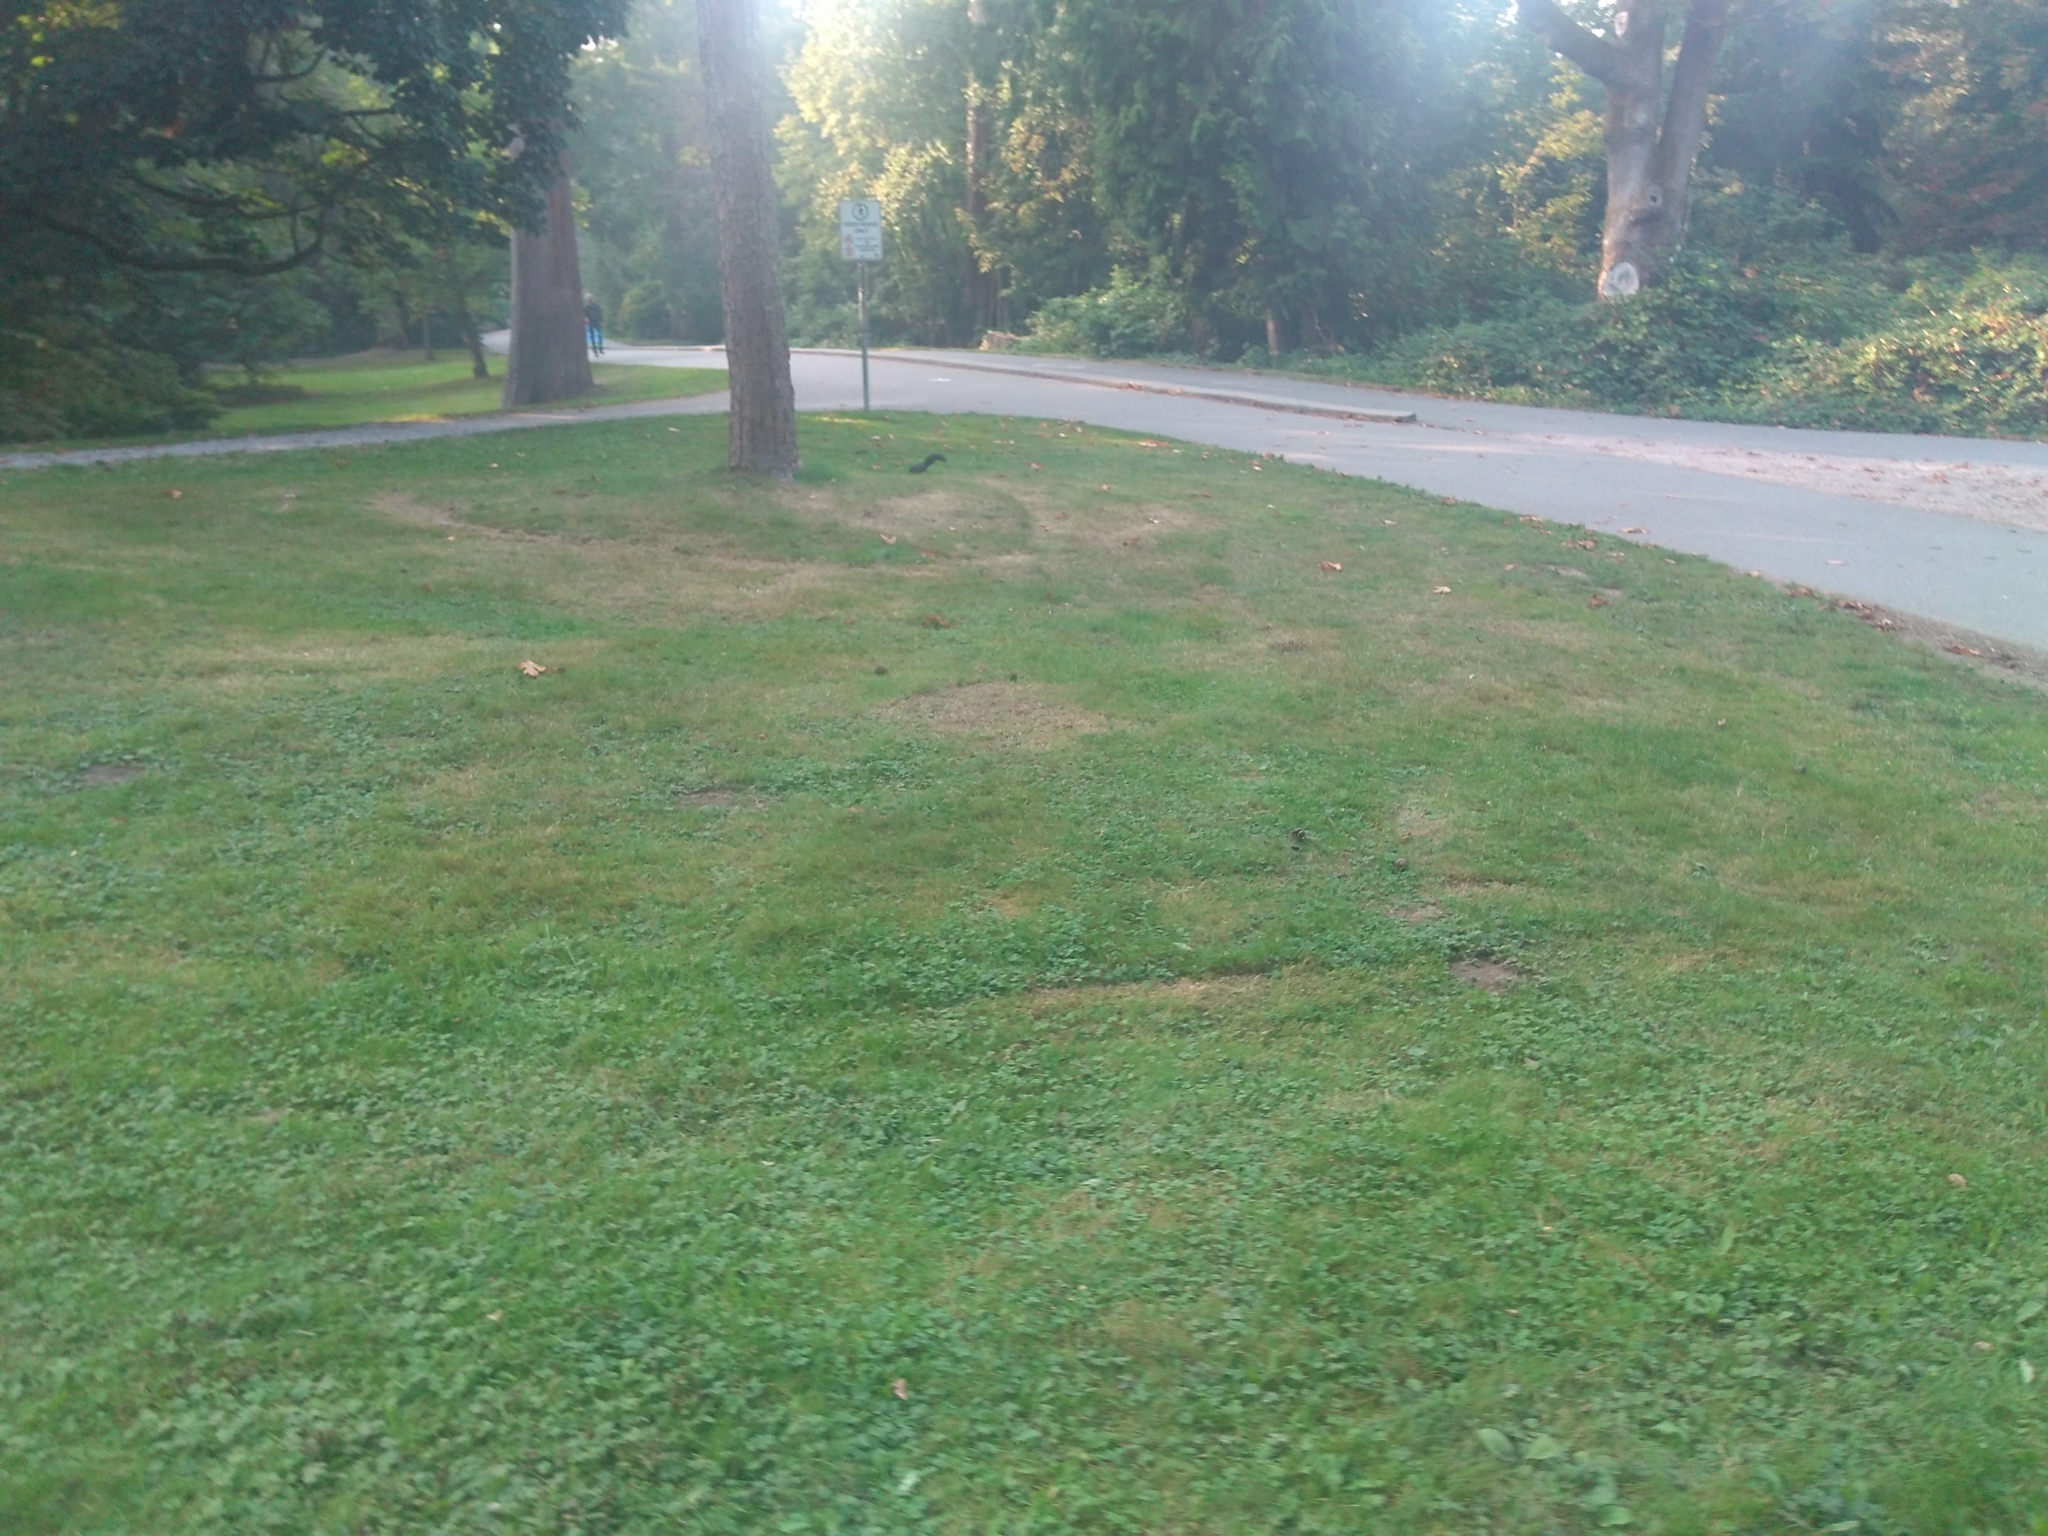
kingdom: Animalia
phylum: Chordata
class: Mammalia
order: Rodentia
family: Sciuridae
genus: Sciurus
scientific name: Sciurus carolinensis
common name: Eastern gray squirrel
